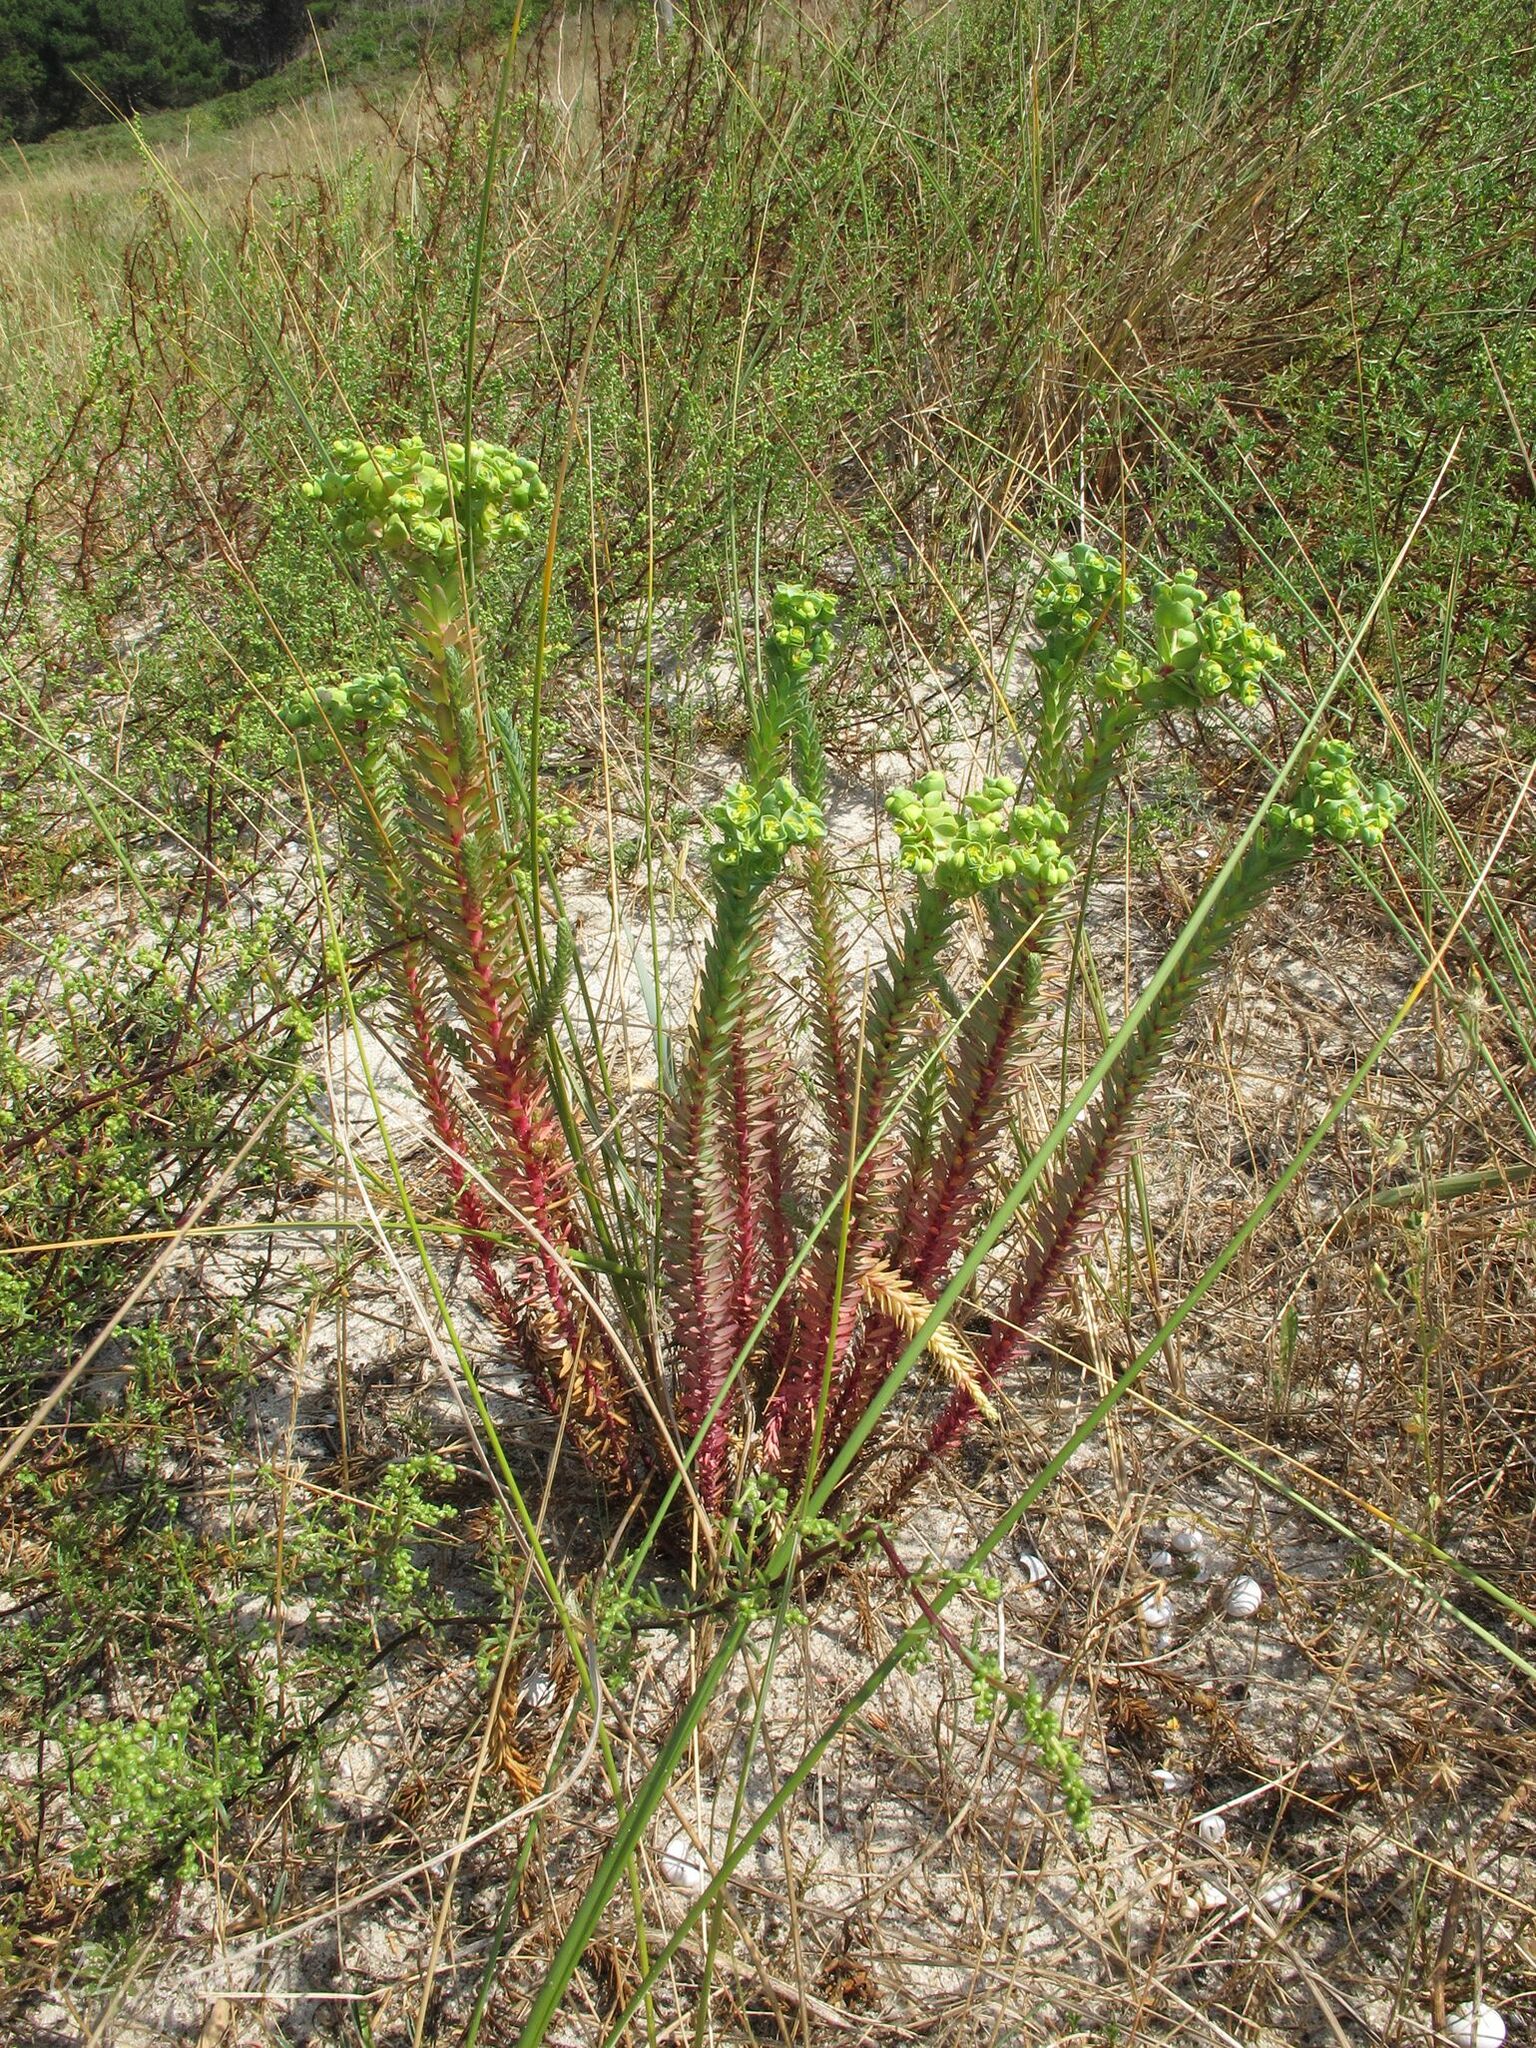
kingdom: Plantae
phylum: Tracheophyta
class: Magnoliopsida
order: Malpighiales
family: Euphorbiaceae
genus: Euphorbia
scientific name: Euphorbia paralias
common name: Sea spurge
